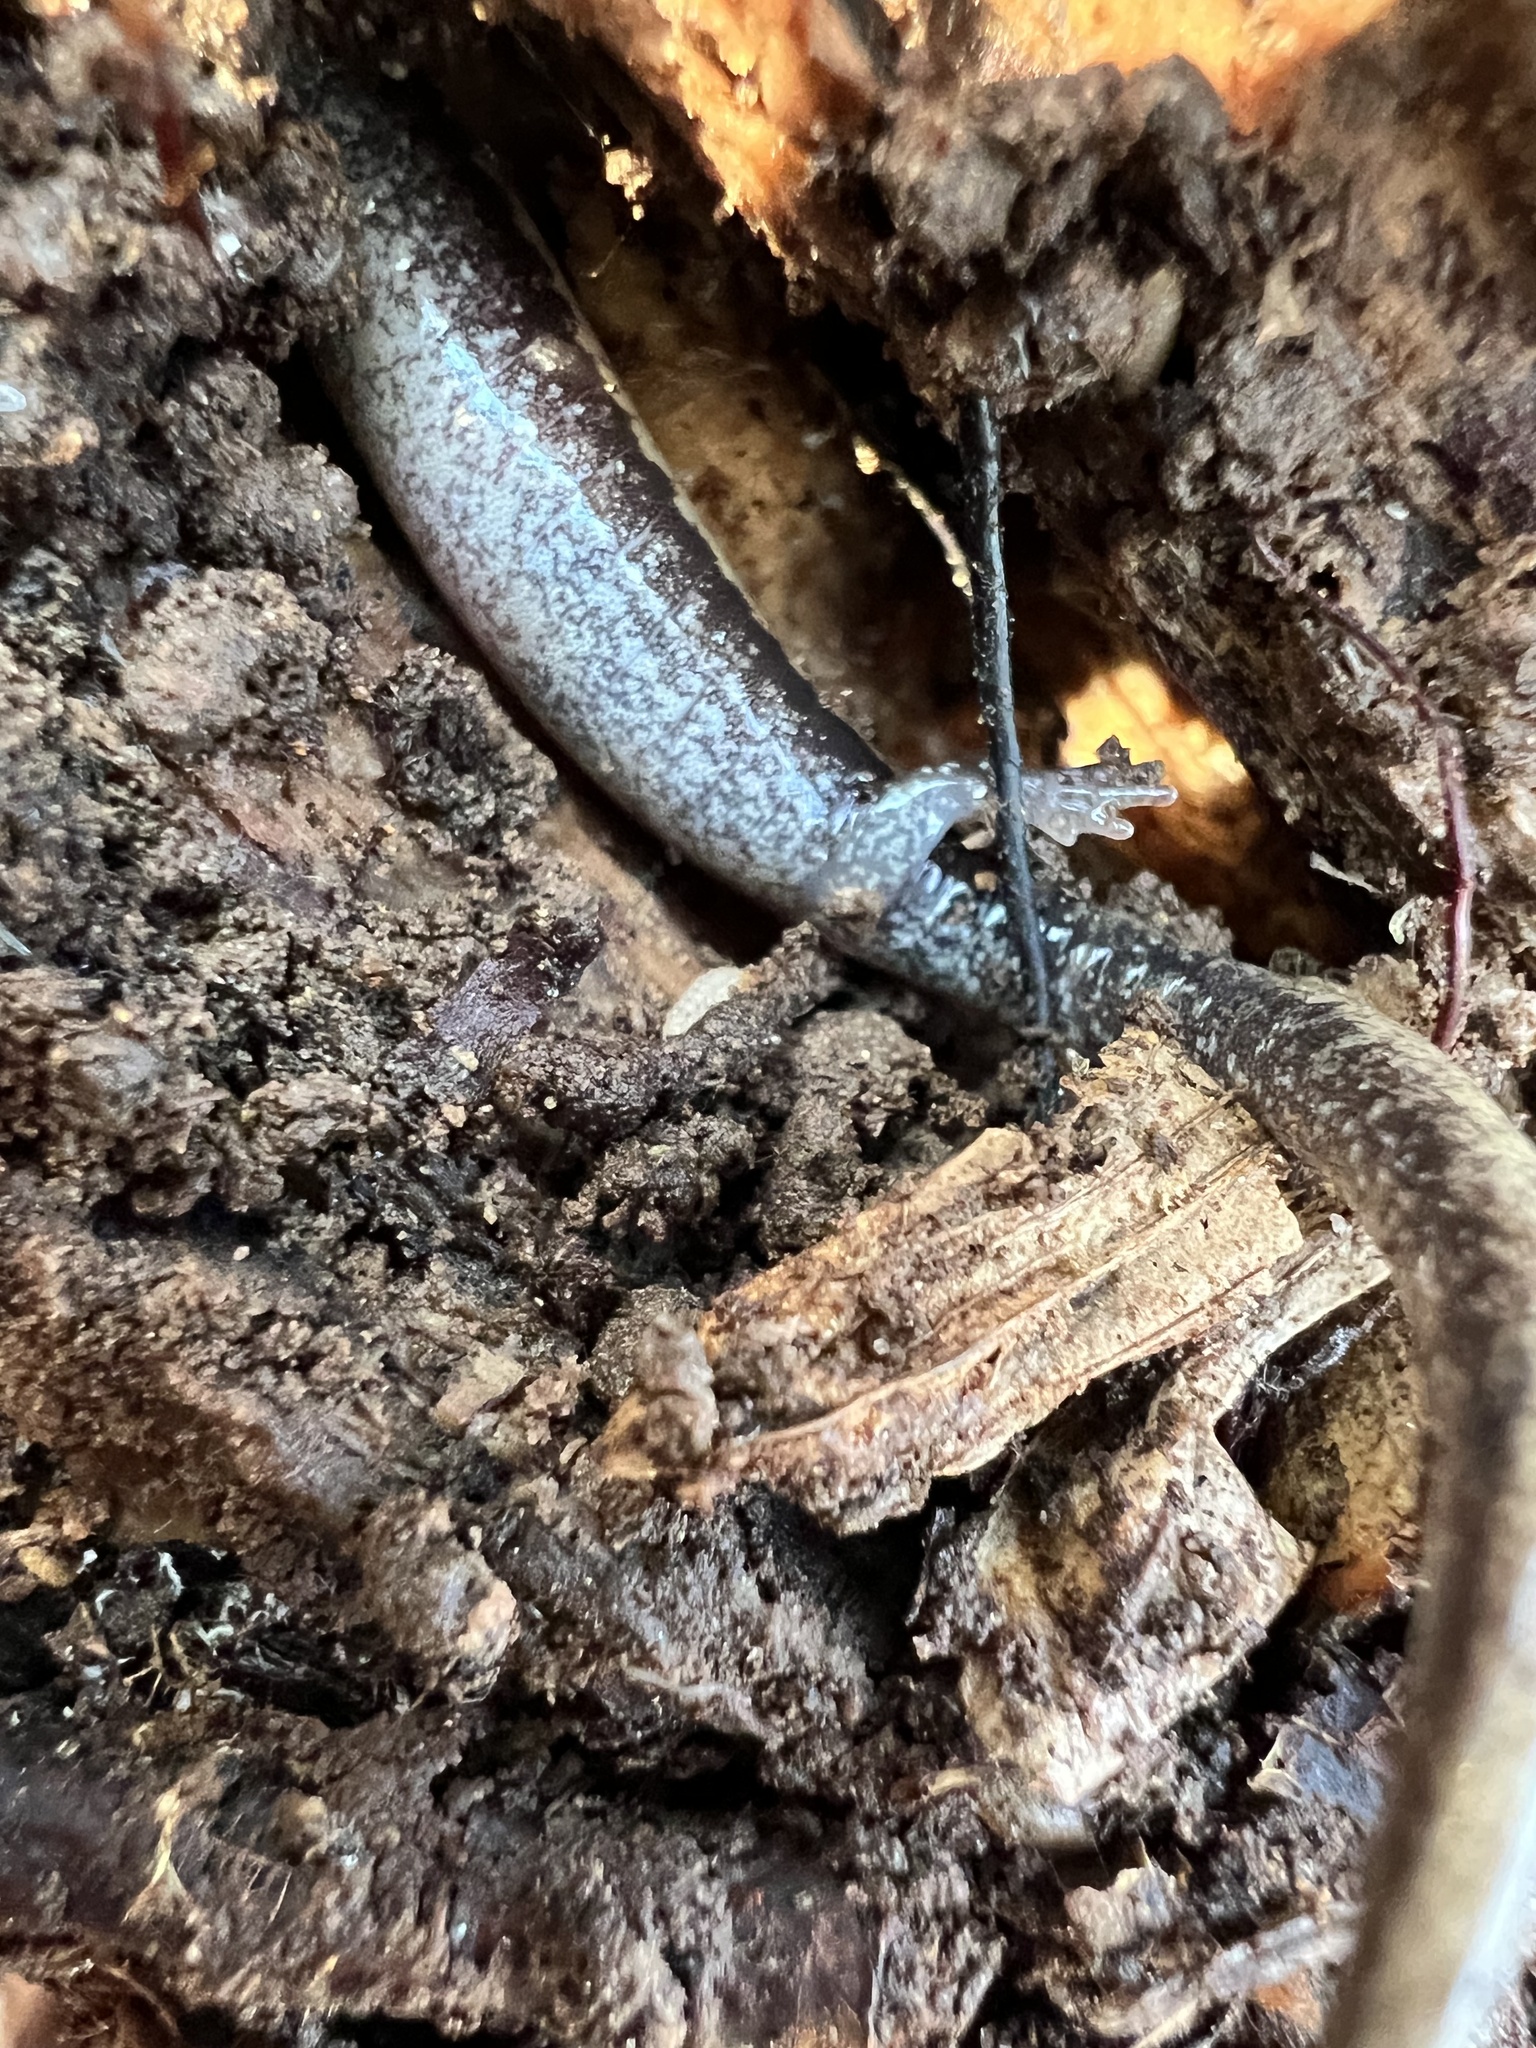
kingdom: Animalia
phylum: Chordata
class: Amphibia
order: Caudata
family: Plethodontidae
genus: Plethodon
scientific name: Plethodon cinereus
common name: Redback salamander
